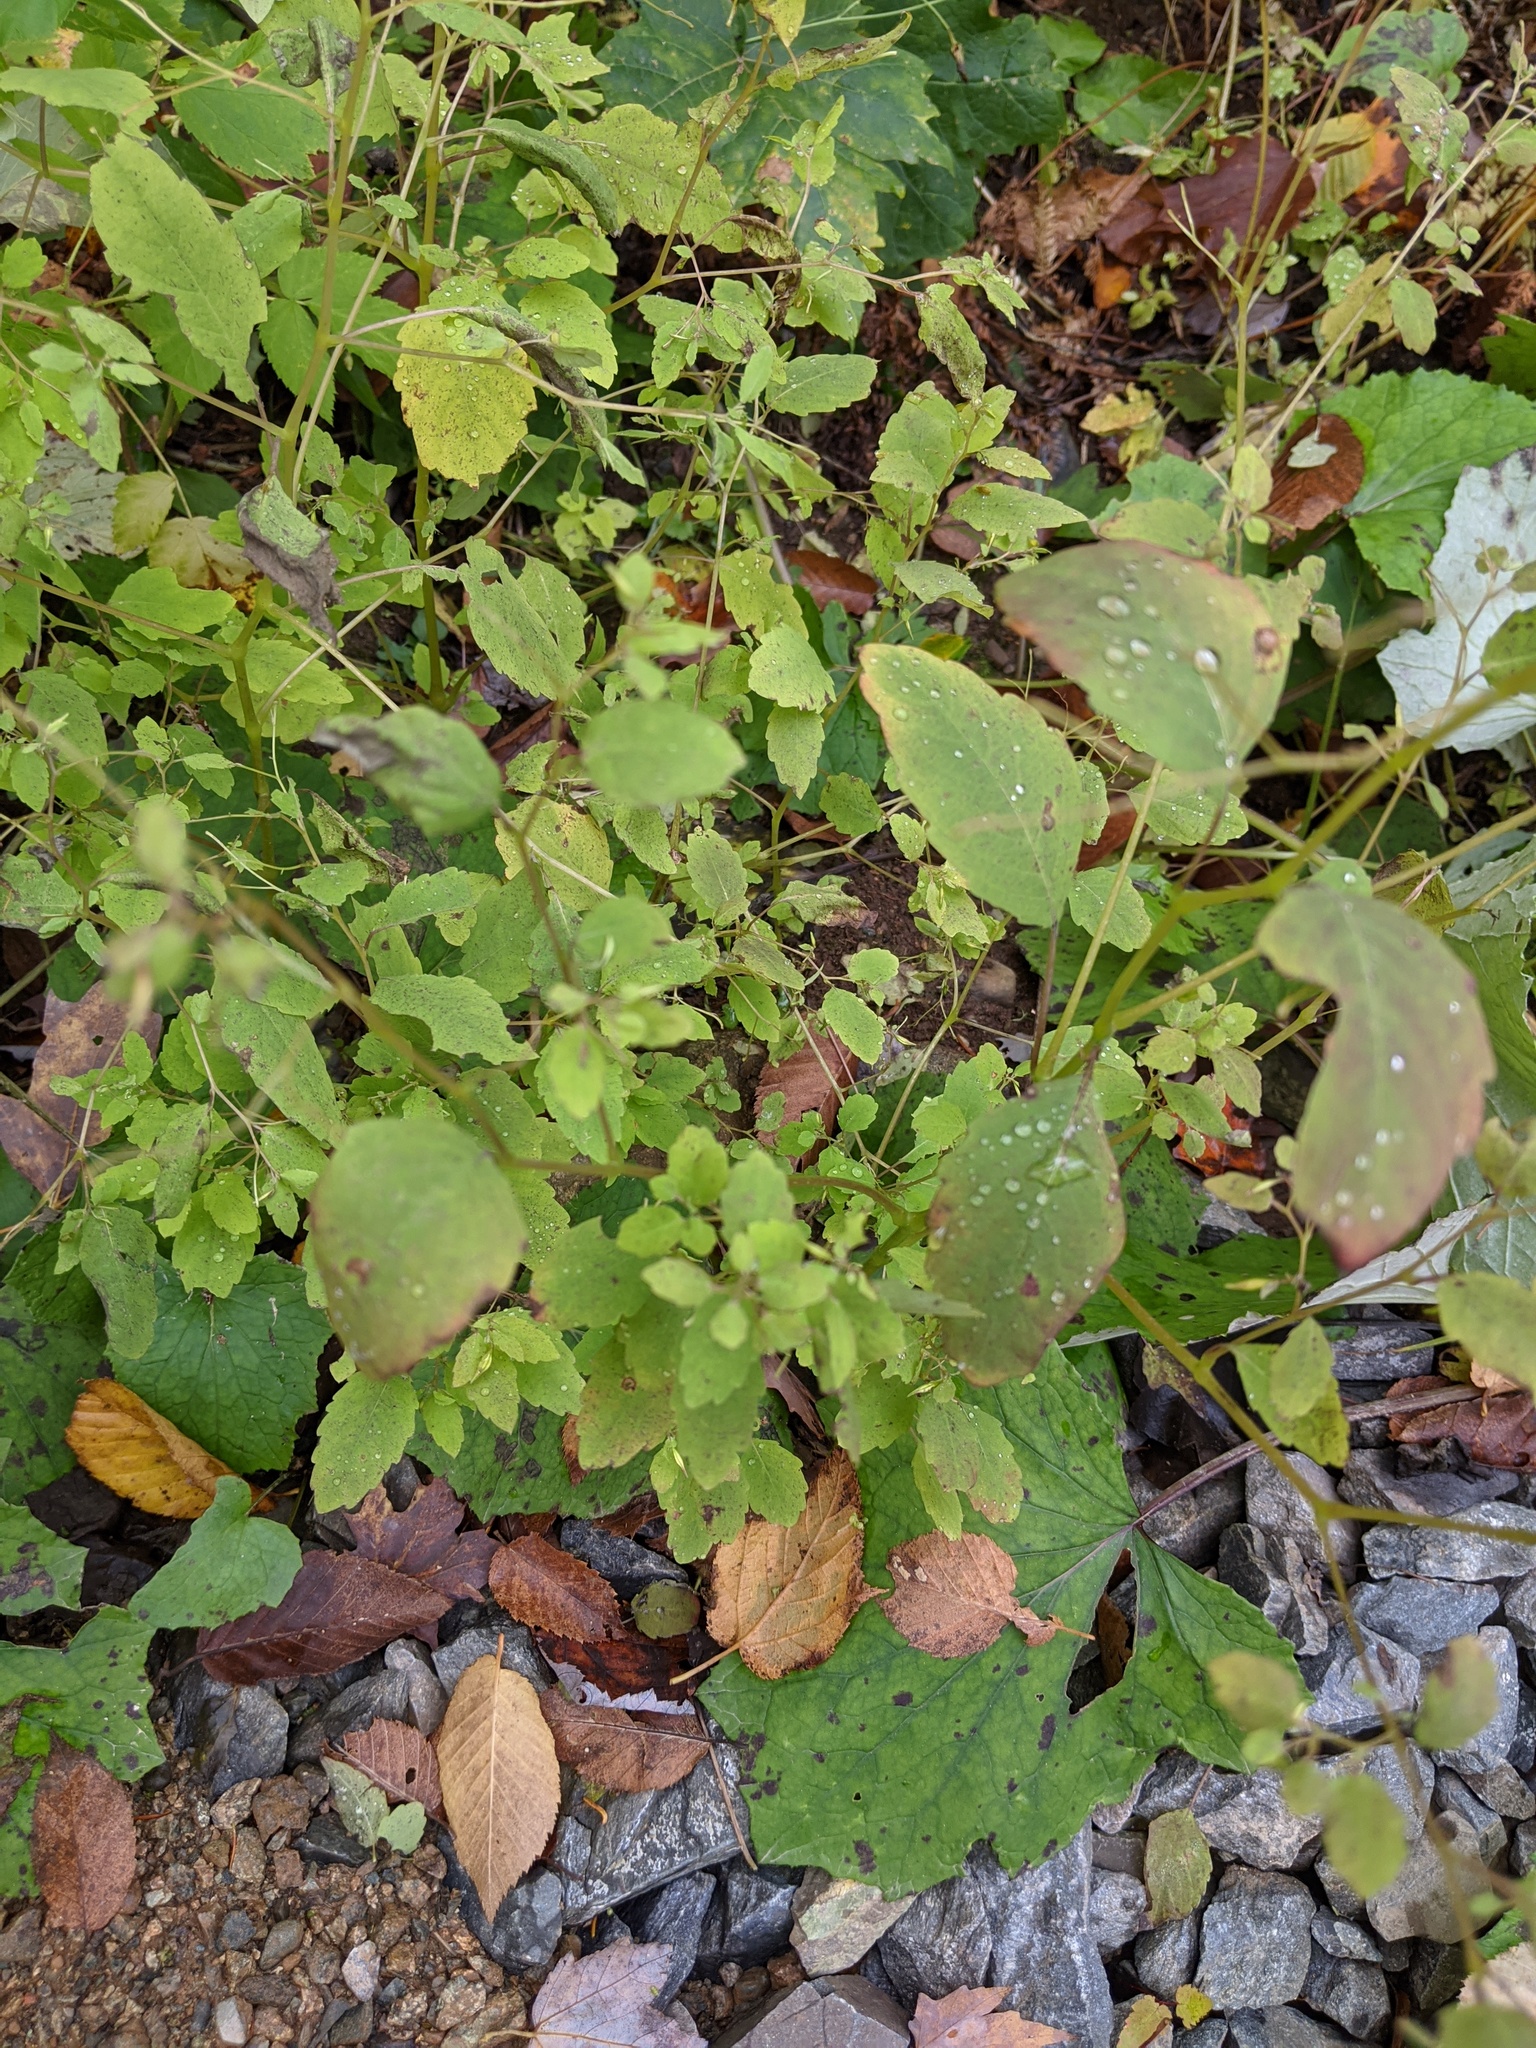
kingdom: Plantae
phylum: Tracheophyta
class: Magnoliopsida
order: Ericales
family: Balsaminaceae
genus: Impatiens
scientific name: Impatiens capensis
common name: Orange balsam
